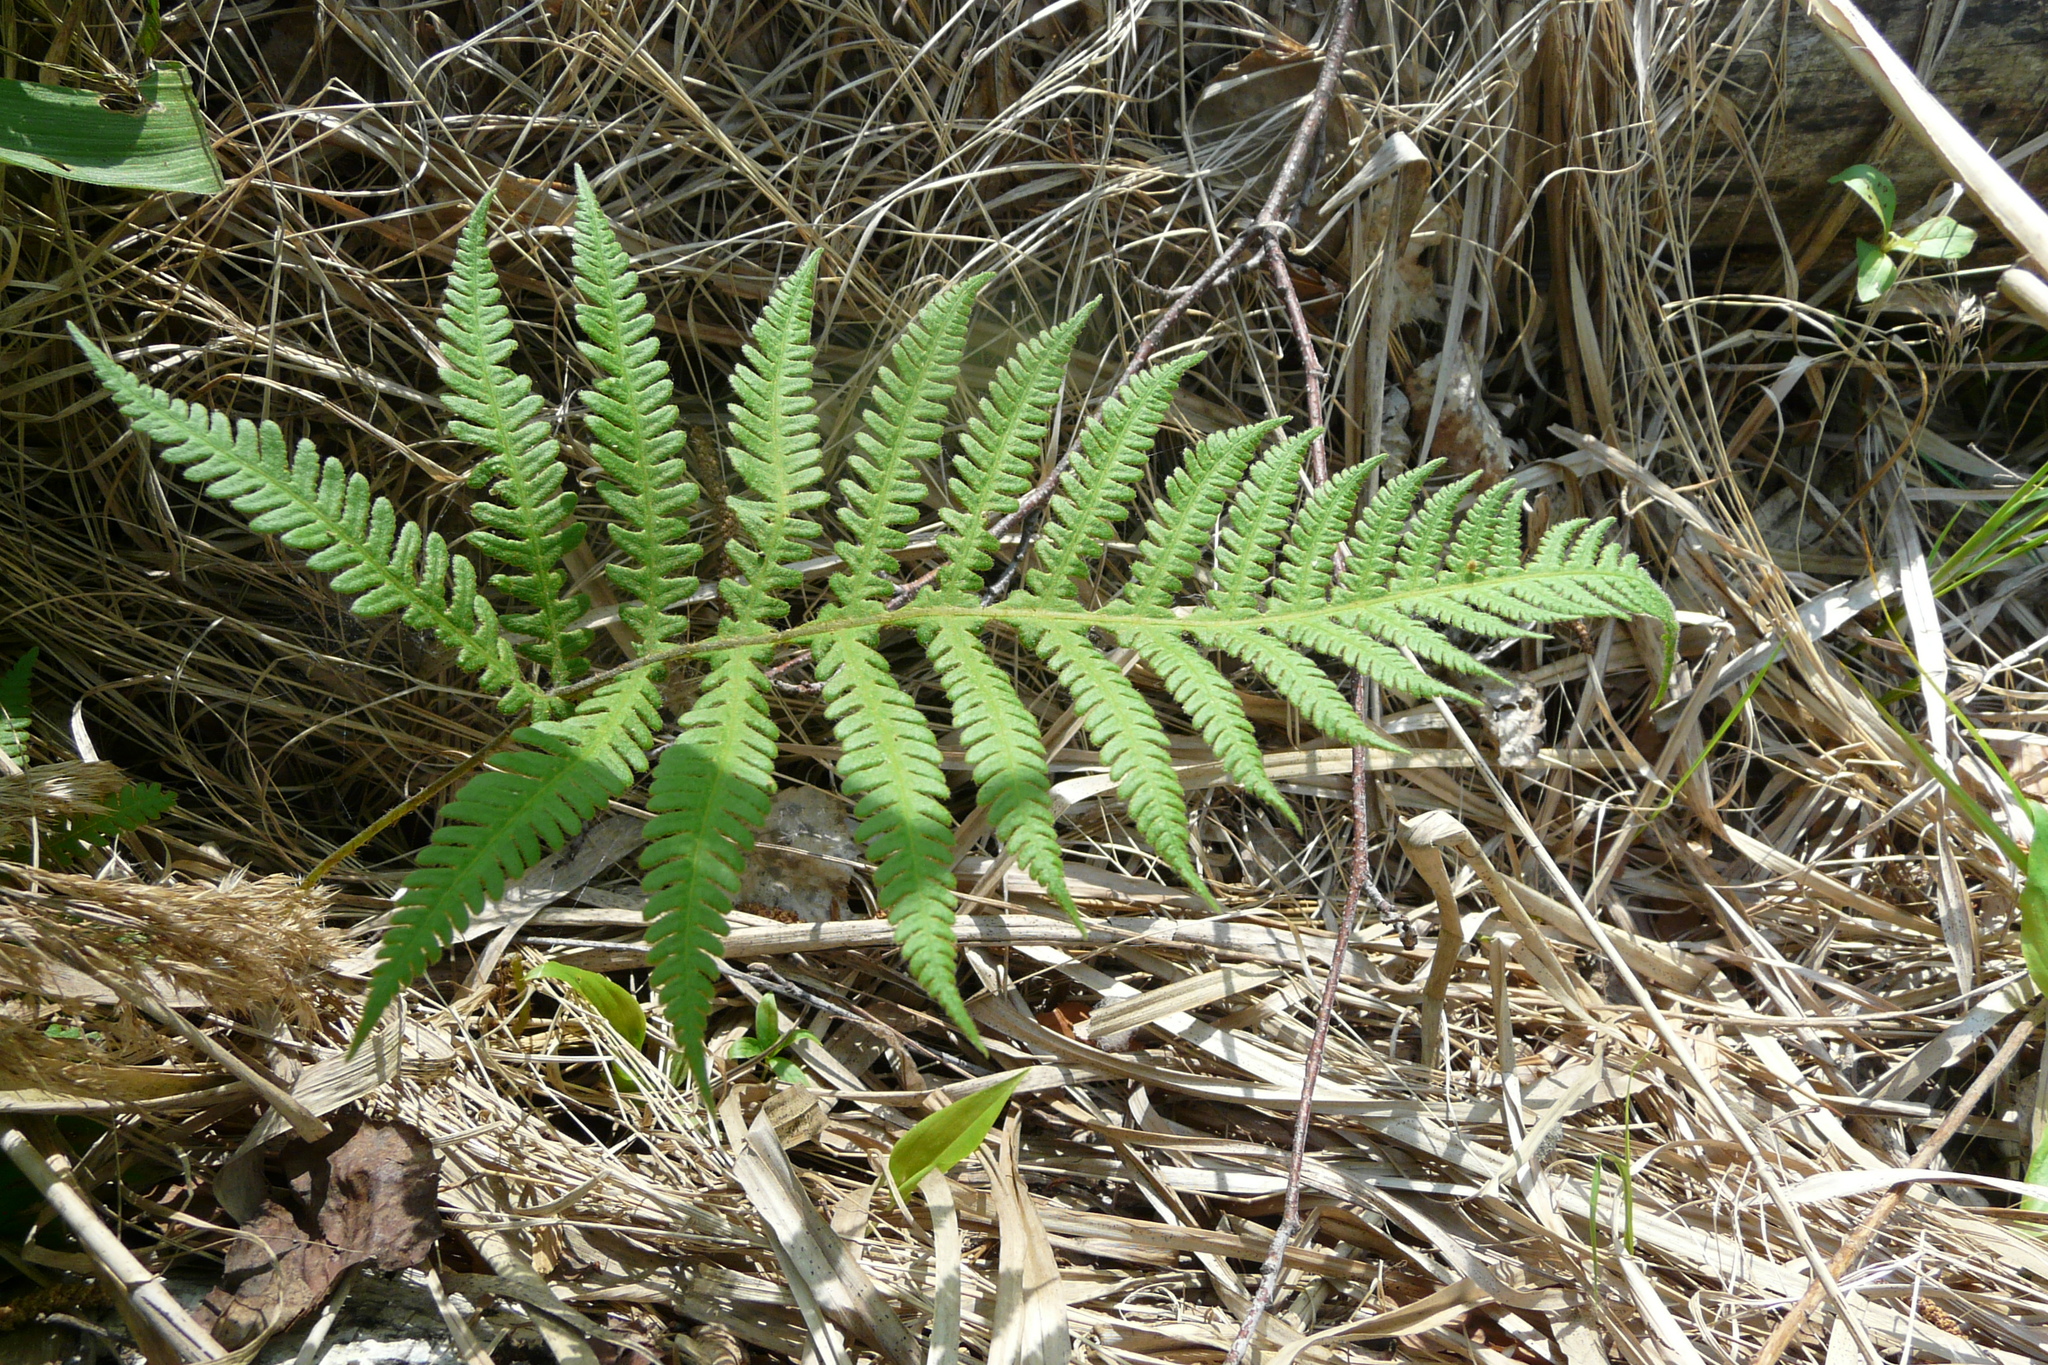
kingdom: Plantae
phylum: Tracheophyta
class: Polypodiopsida
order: Polypodiales
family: Thelypteridaceae
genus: Phegopteris
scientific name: Phegopteris connectilis
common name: Beech fern
